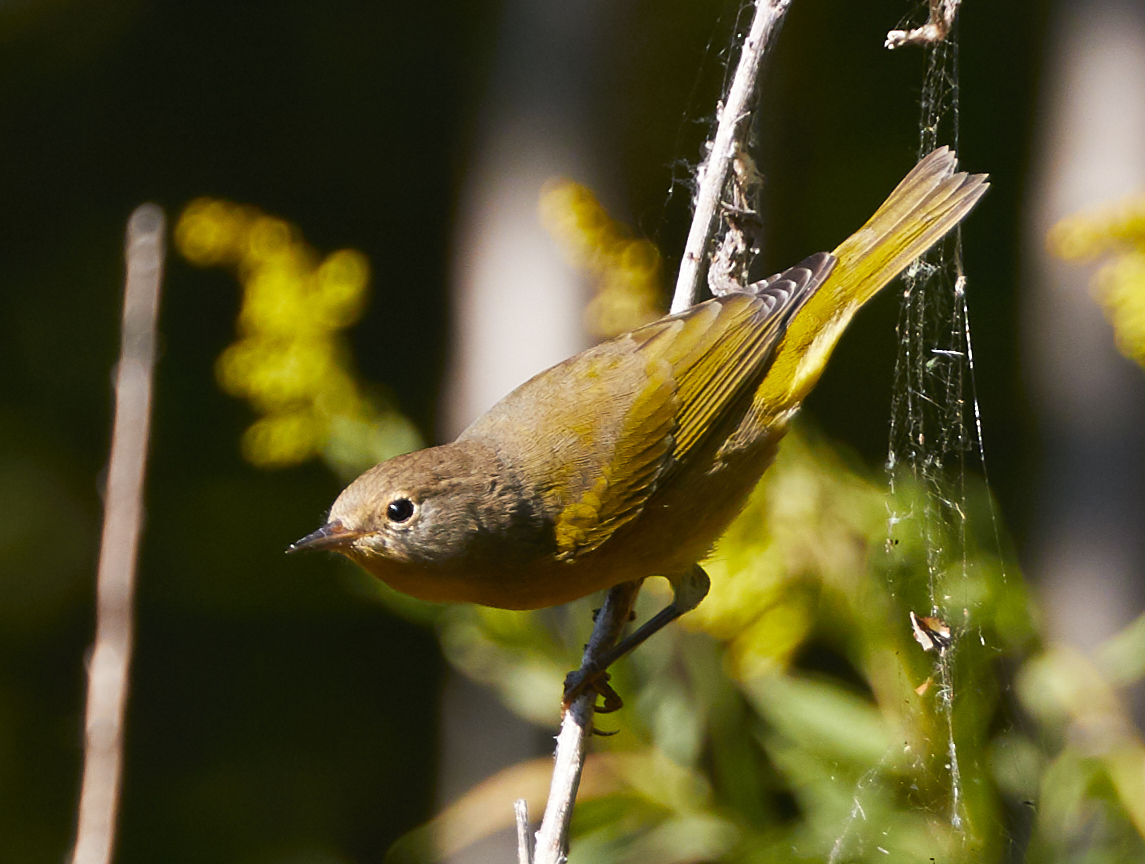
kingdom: Animalia
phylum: Chordata
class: Aves
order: Passeriformes
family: Parulidae
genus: Leiothlypis
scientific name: Leiothlypis ruficapilla
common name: Nashville warbler
